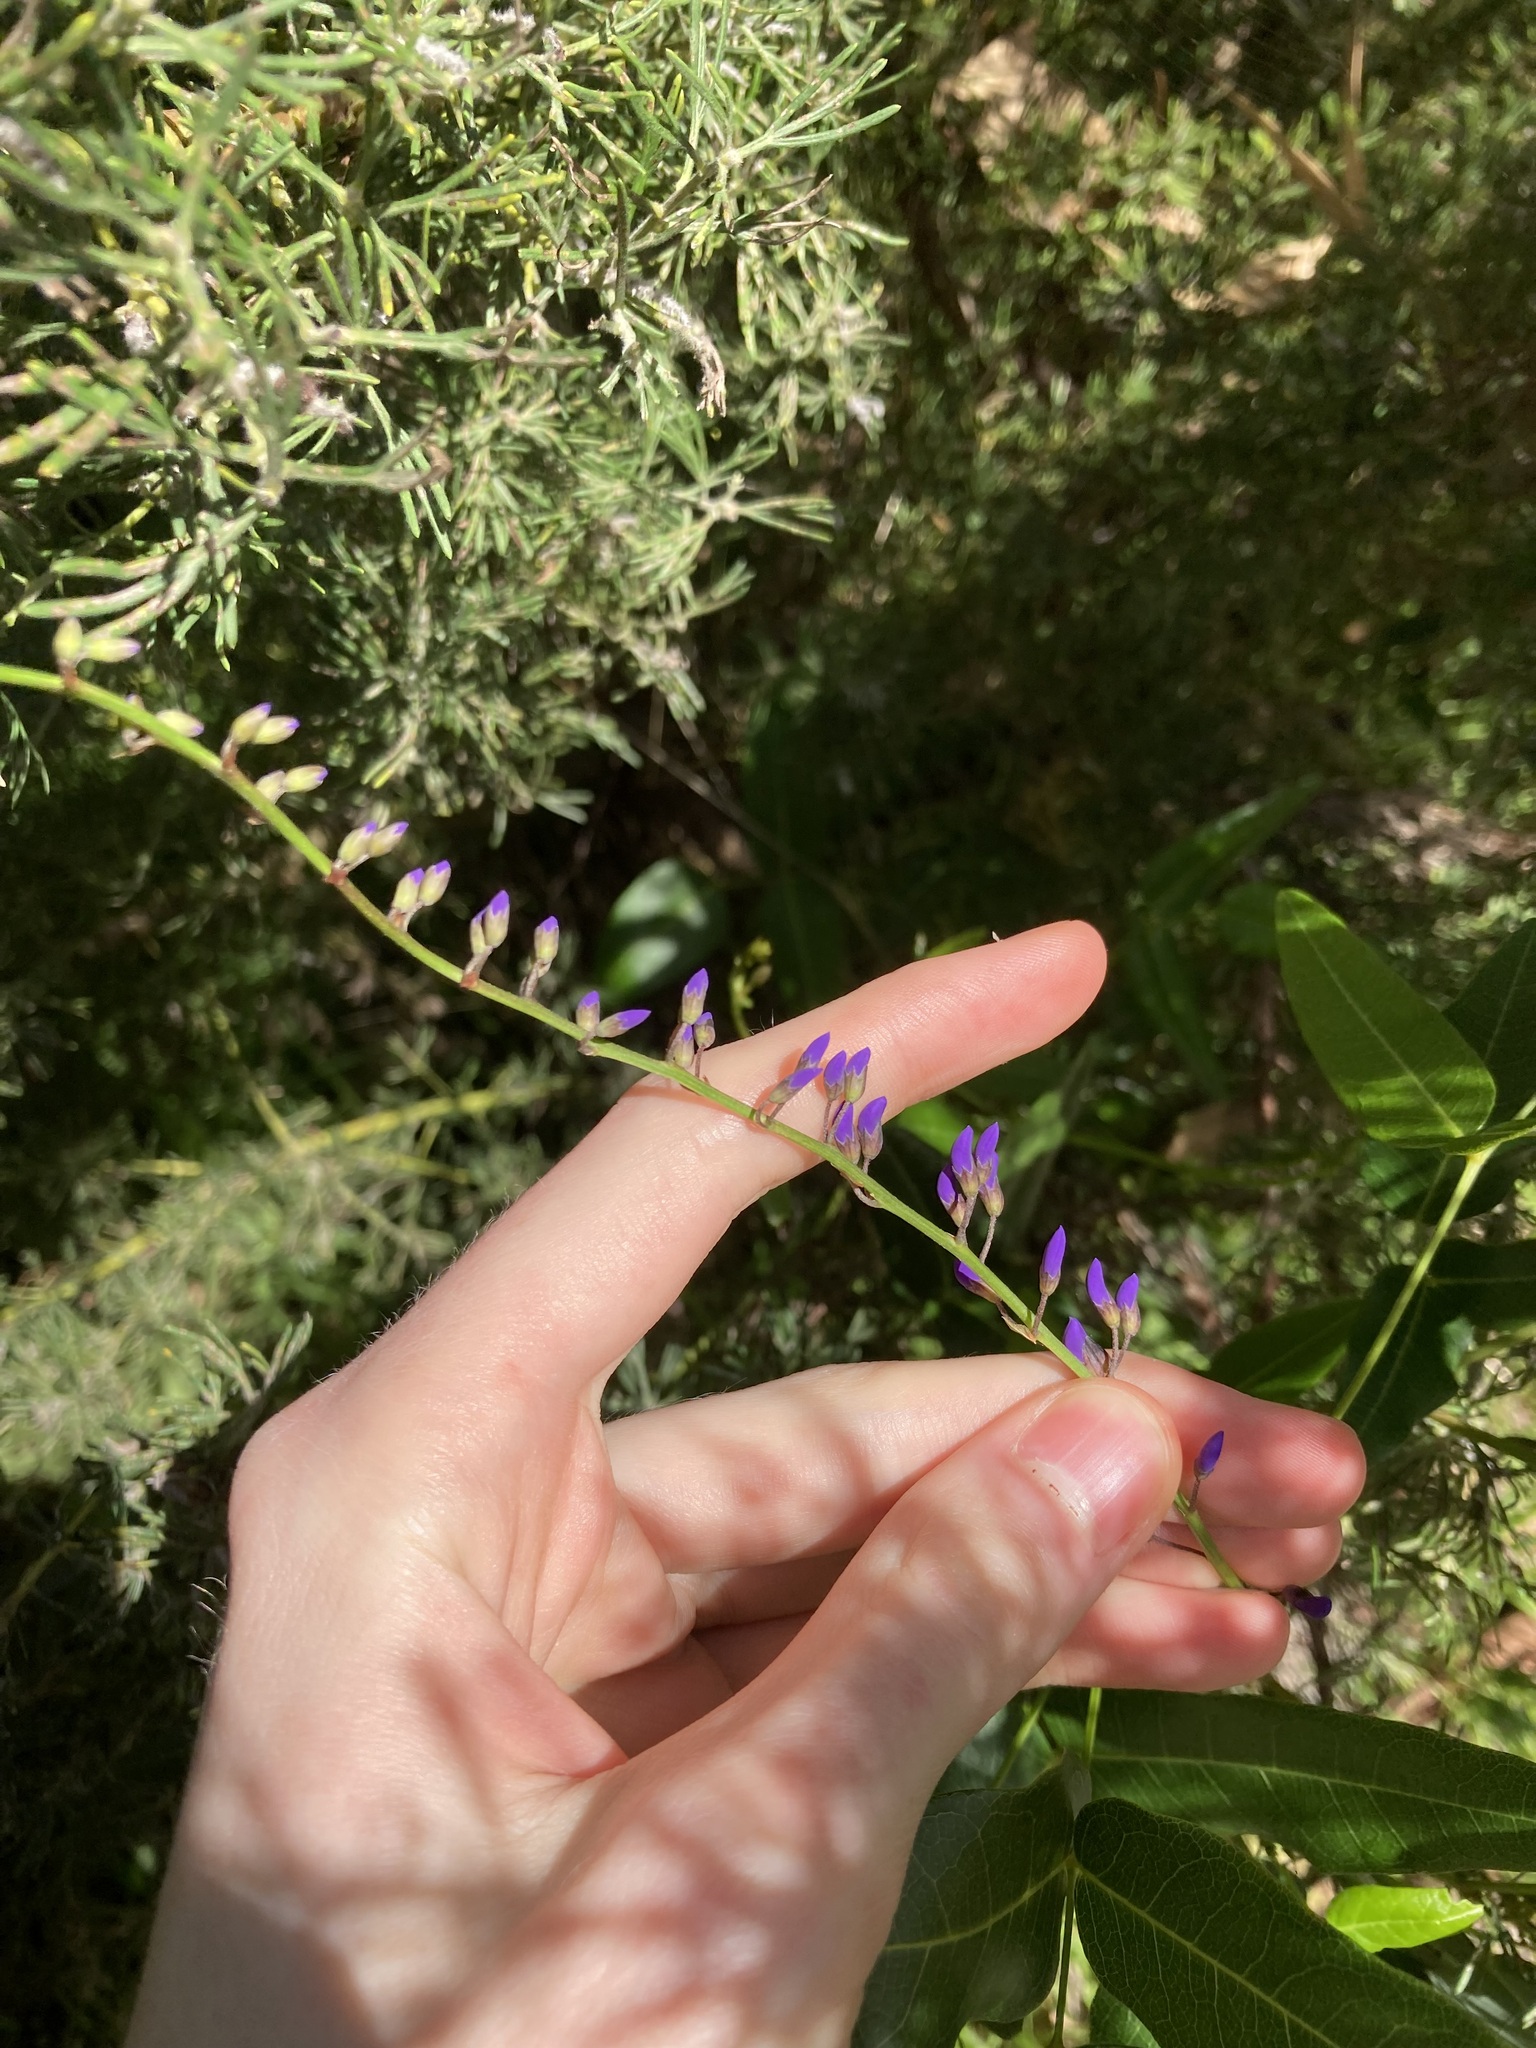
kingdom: Plantae
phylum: Tracheophyta
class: Magnoliopsida
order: Fabales
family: Fabaceae
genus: Hardenbergia
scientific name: Hardenbergia comptoniana
